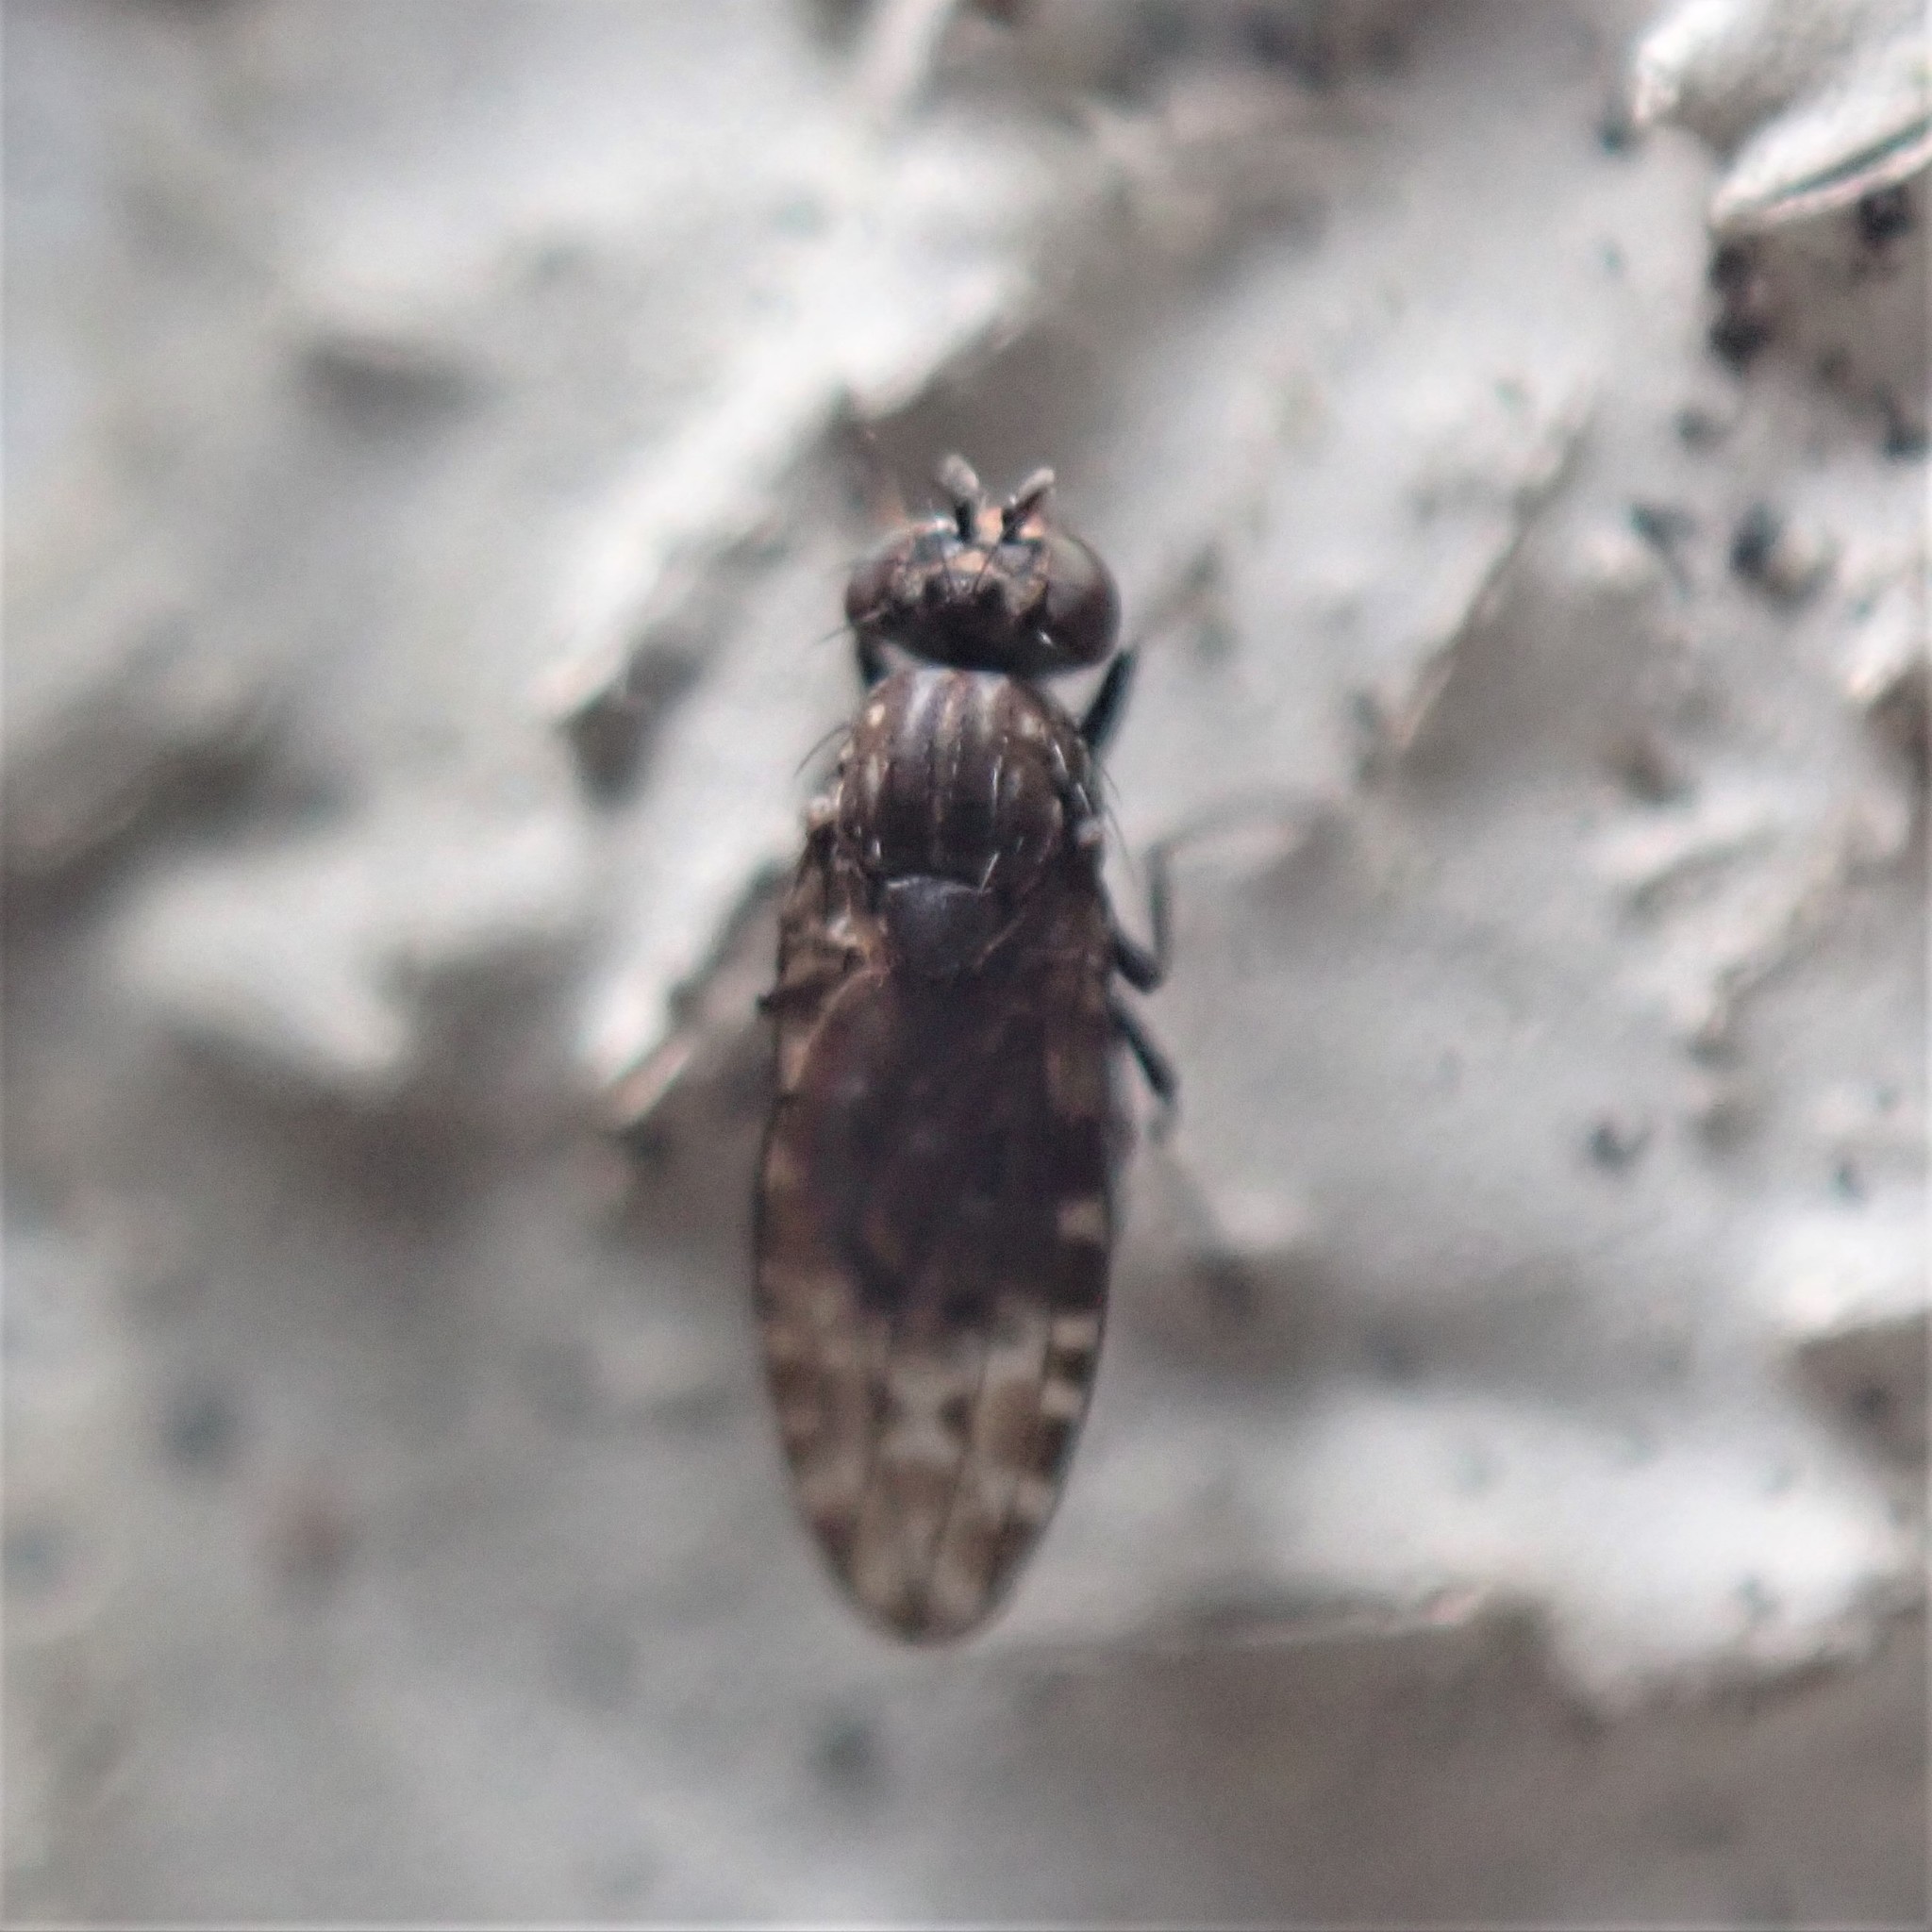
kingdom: Animalia
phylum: Arthropoda
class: Insecta
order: Diptera
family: Ephydridae
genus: Limnellia
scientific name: Limnellia turneri
